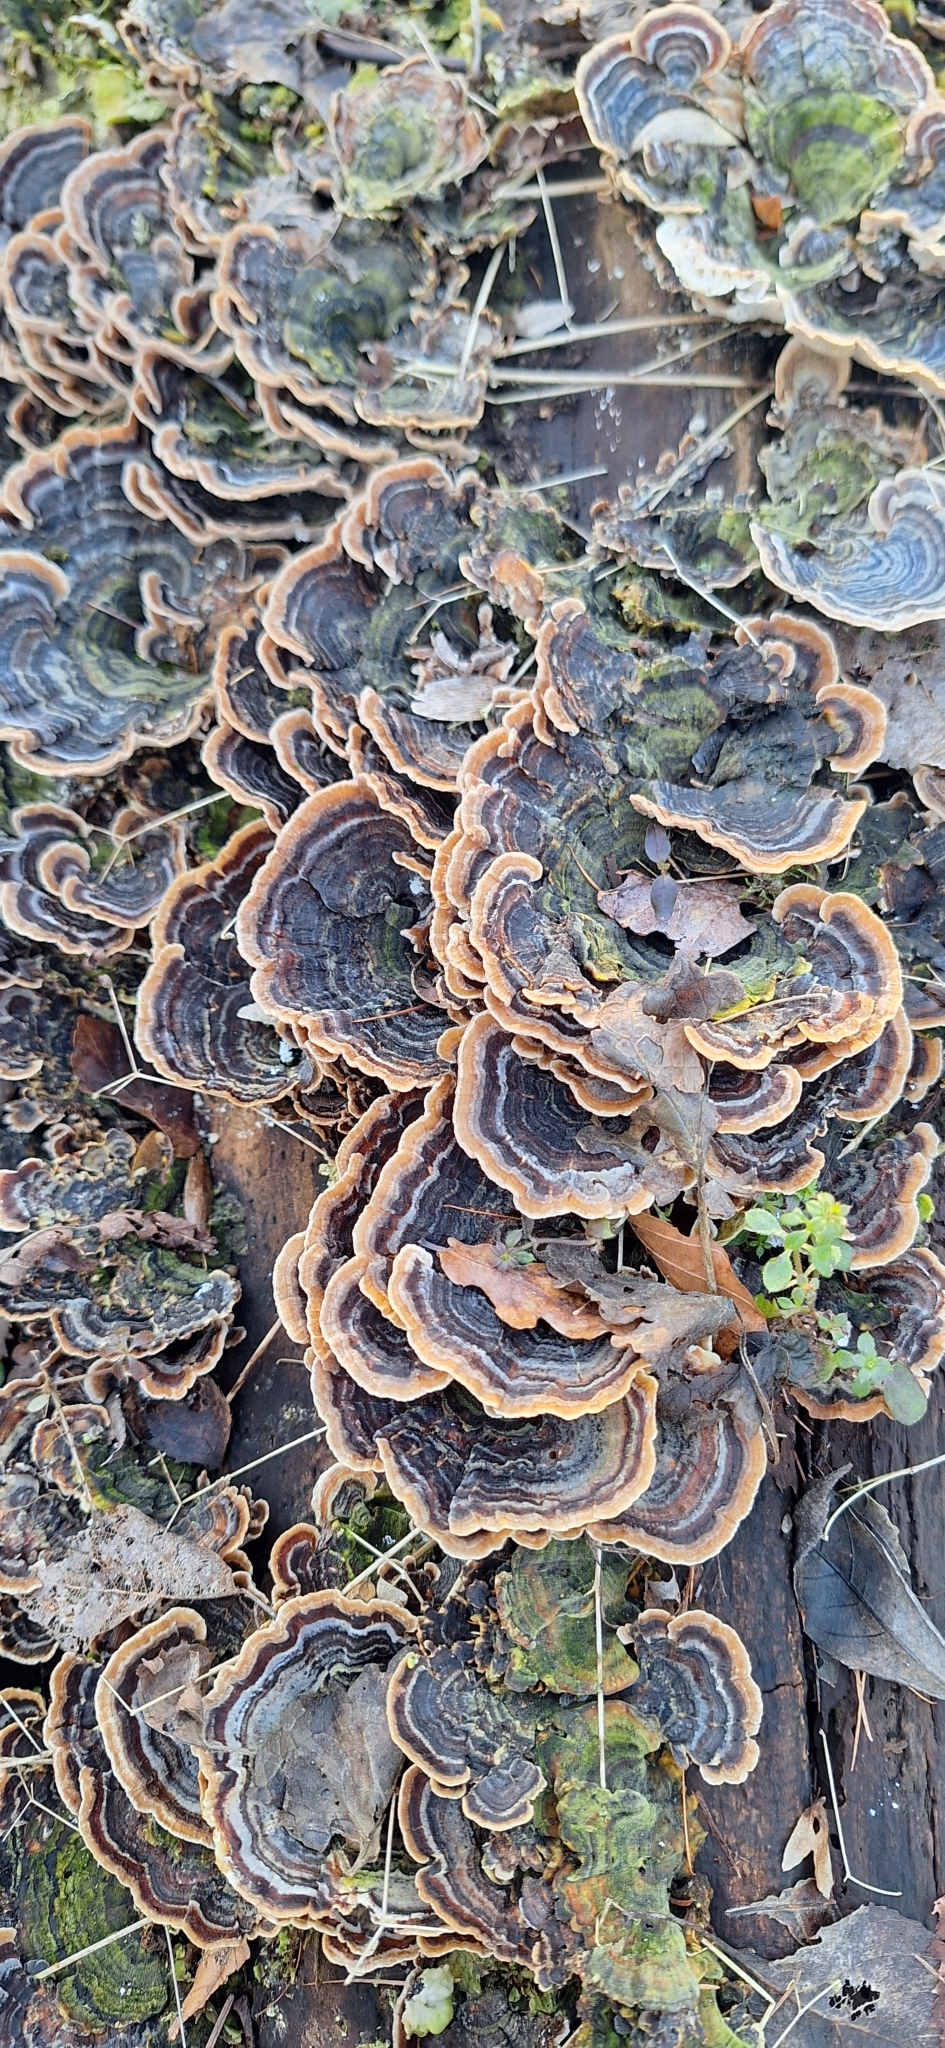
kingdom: Fungi
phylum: Basidiomycota
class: Agaricomycetes
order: Polyporales
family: Polyporaceae
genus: Trametes
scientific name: Trametes versicolor
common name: Turkeytail
